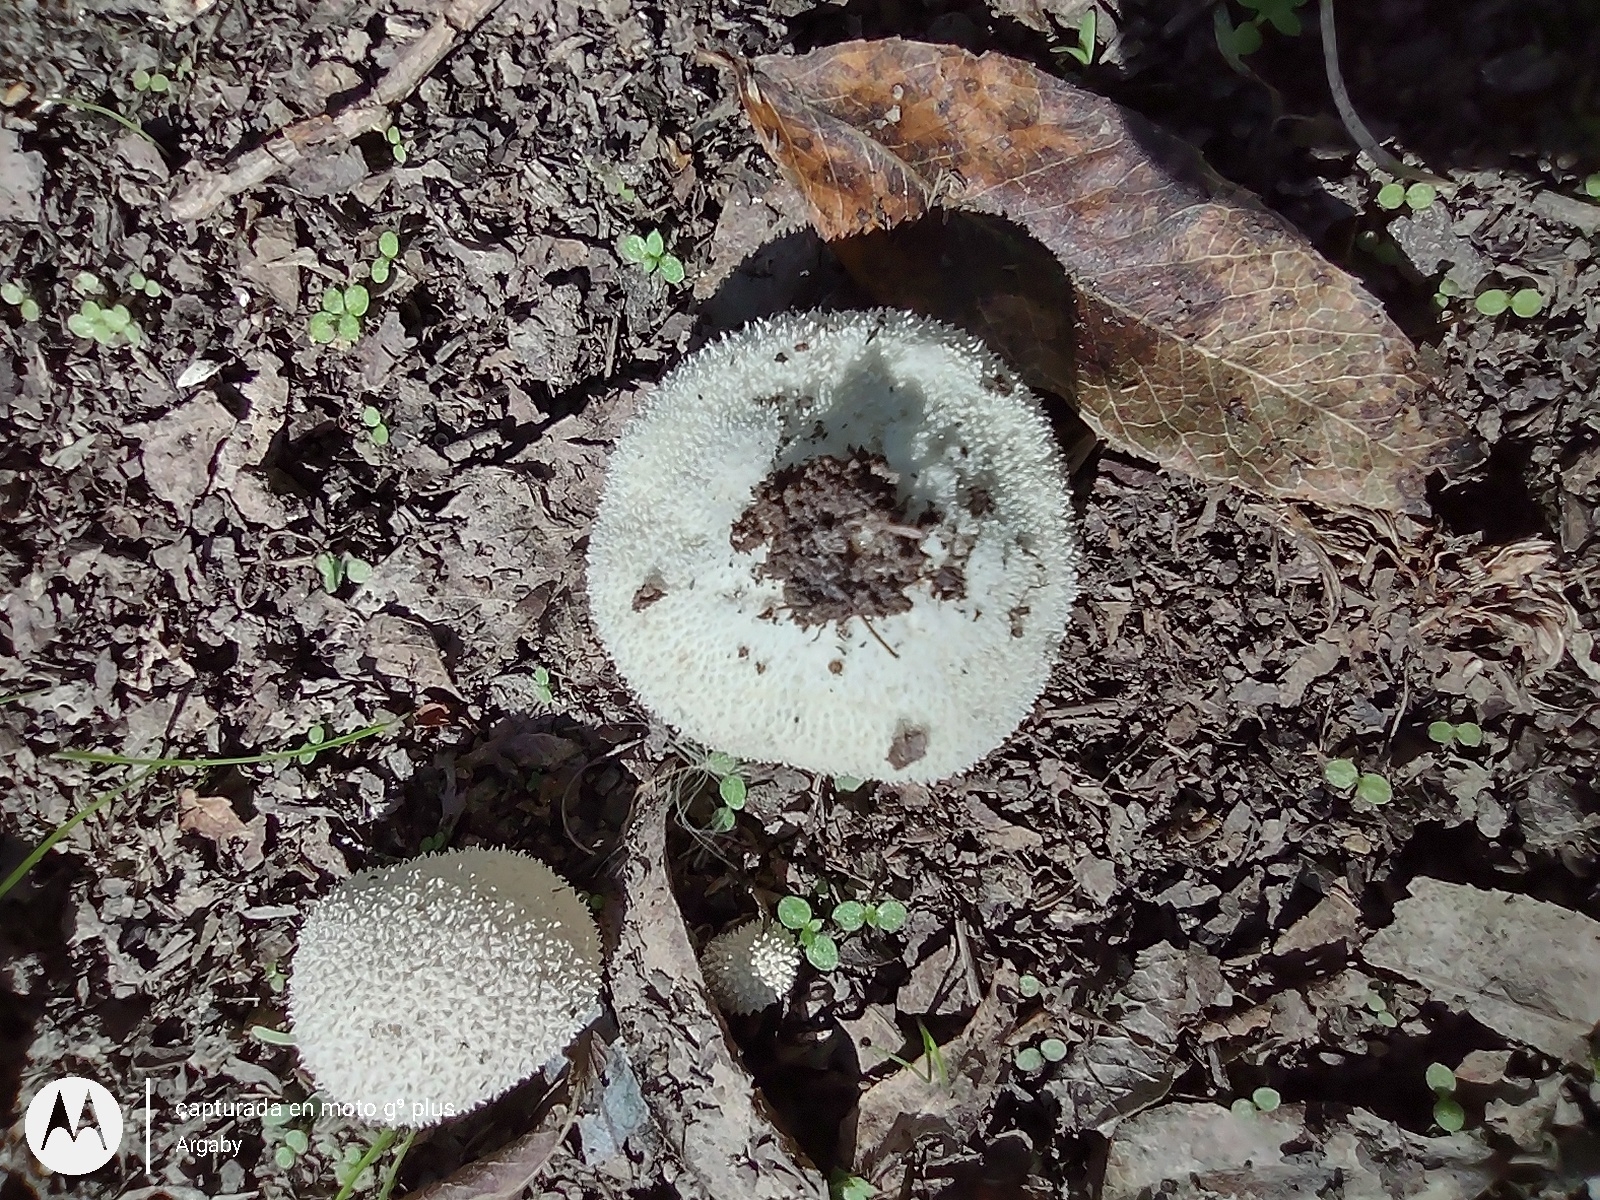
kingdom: Fungi
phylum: Basidiomycota
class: Agaricomycetes
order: Agaricales
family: Agaricaceae
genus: Lycoperdon
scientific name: Lycoperdon marginatum
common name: Peeling puffball
